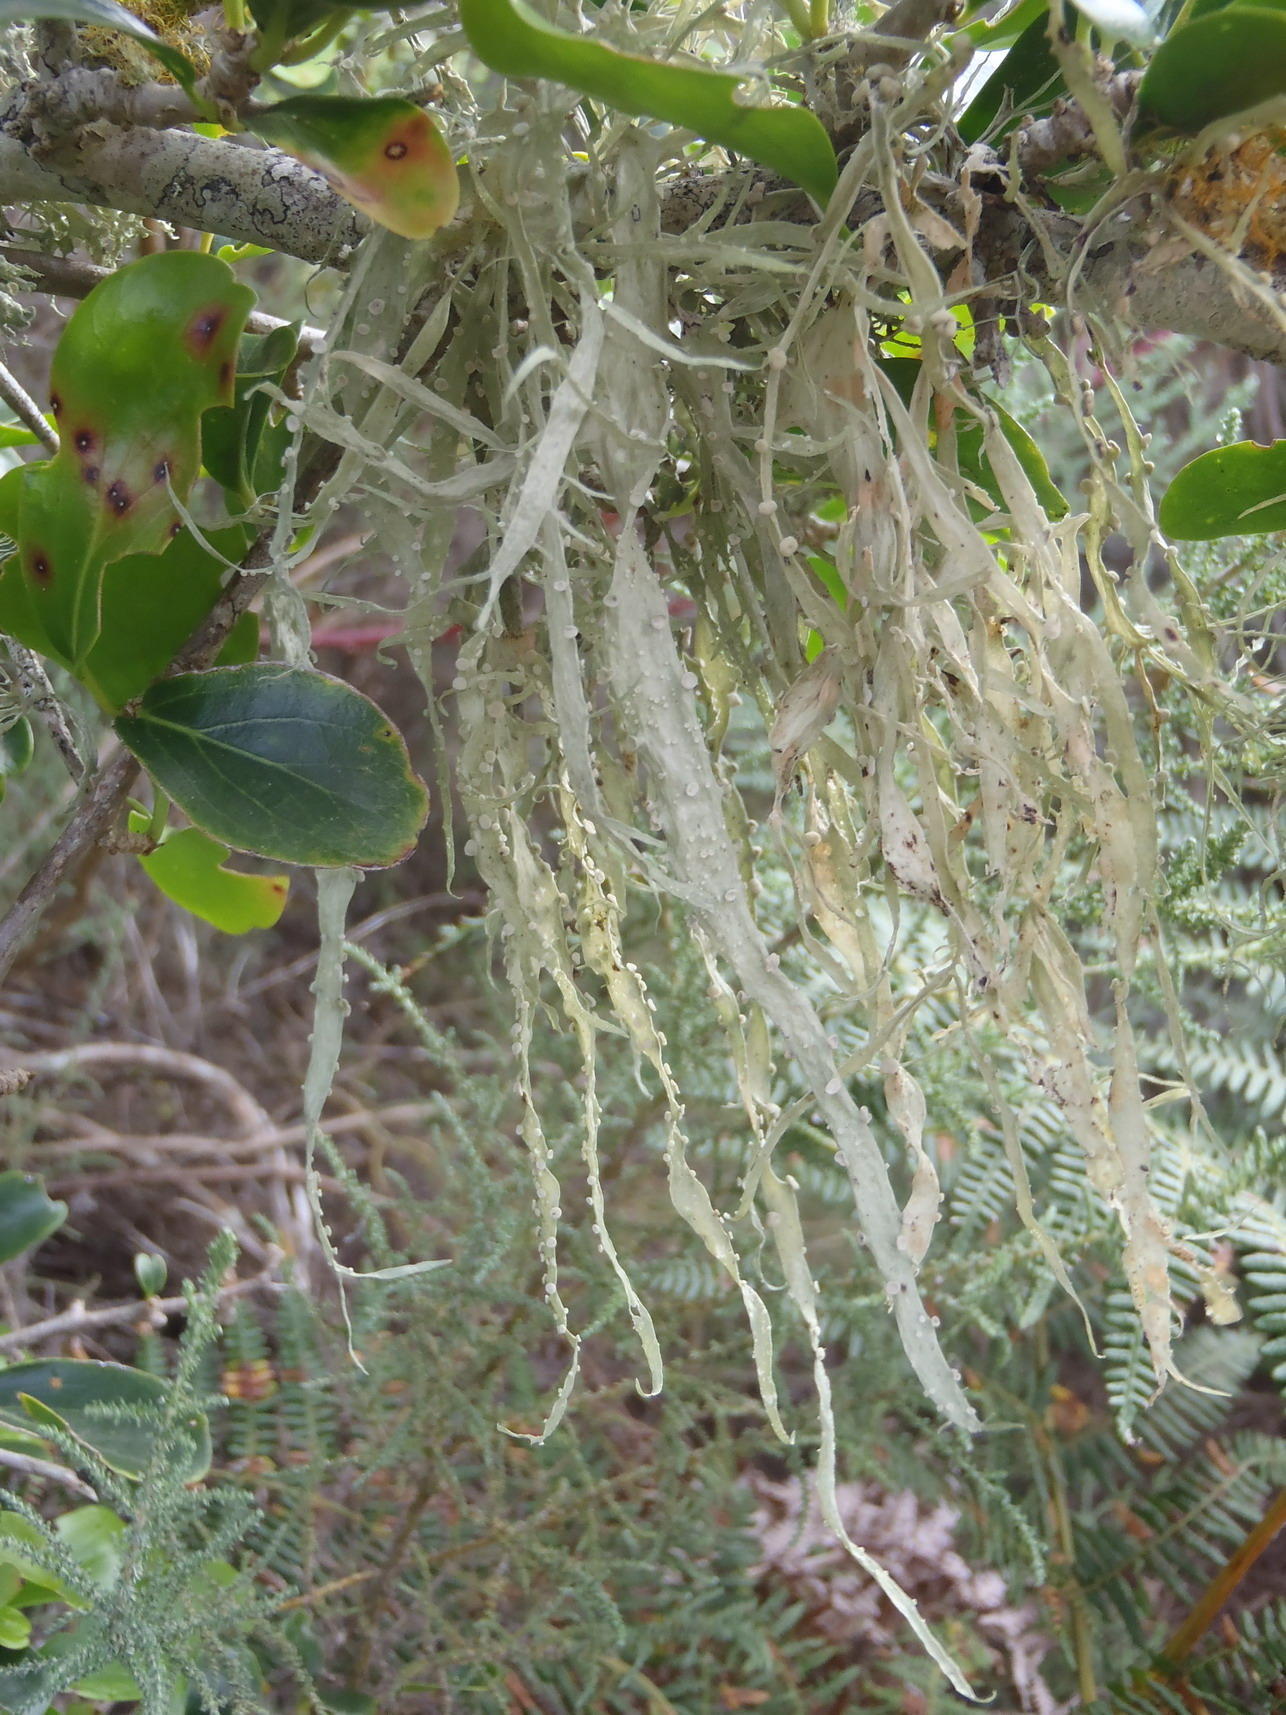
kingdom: Fungi
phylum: Ascomycota
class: Lecanoromycetes
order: Lecanorales
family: Ramalinaceae
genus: Ramalina
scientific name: Ramalina celastri
